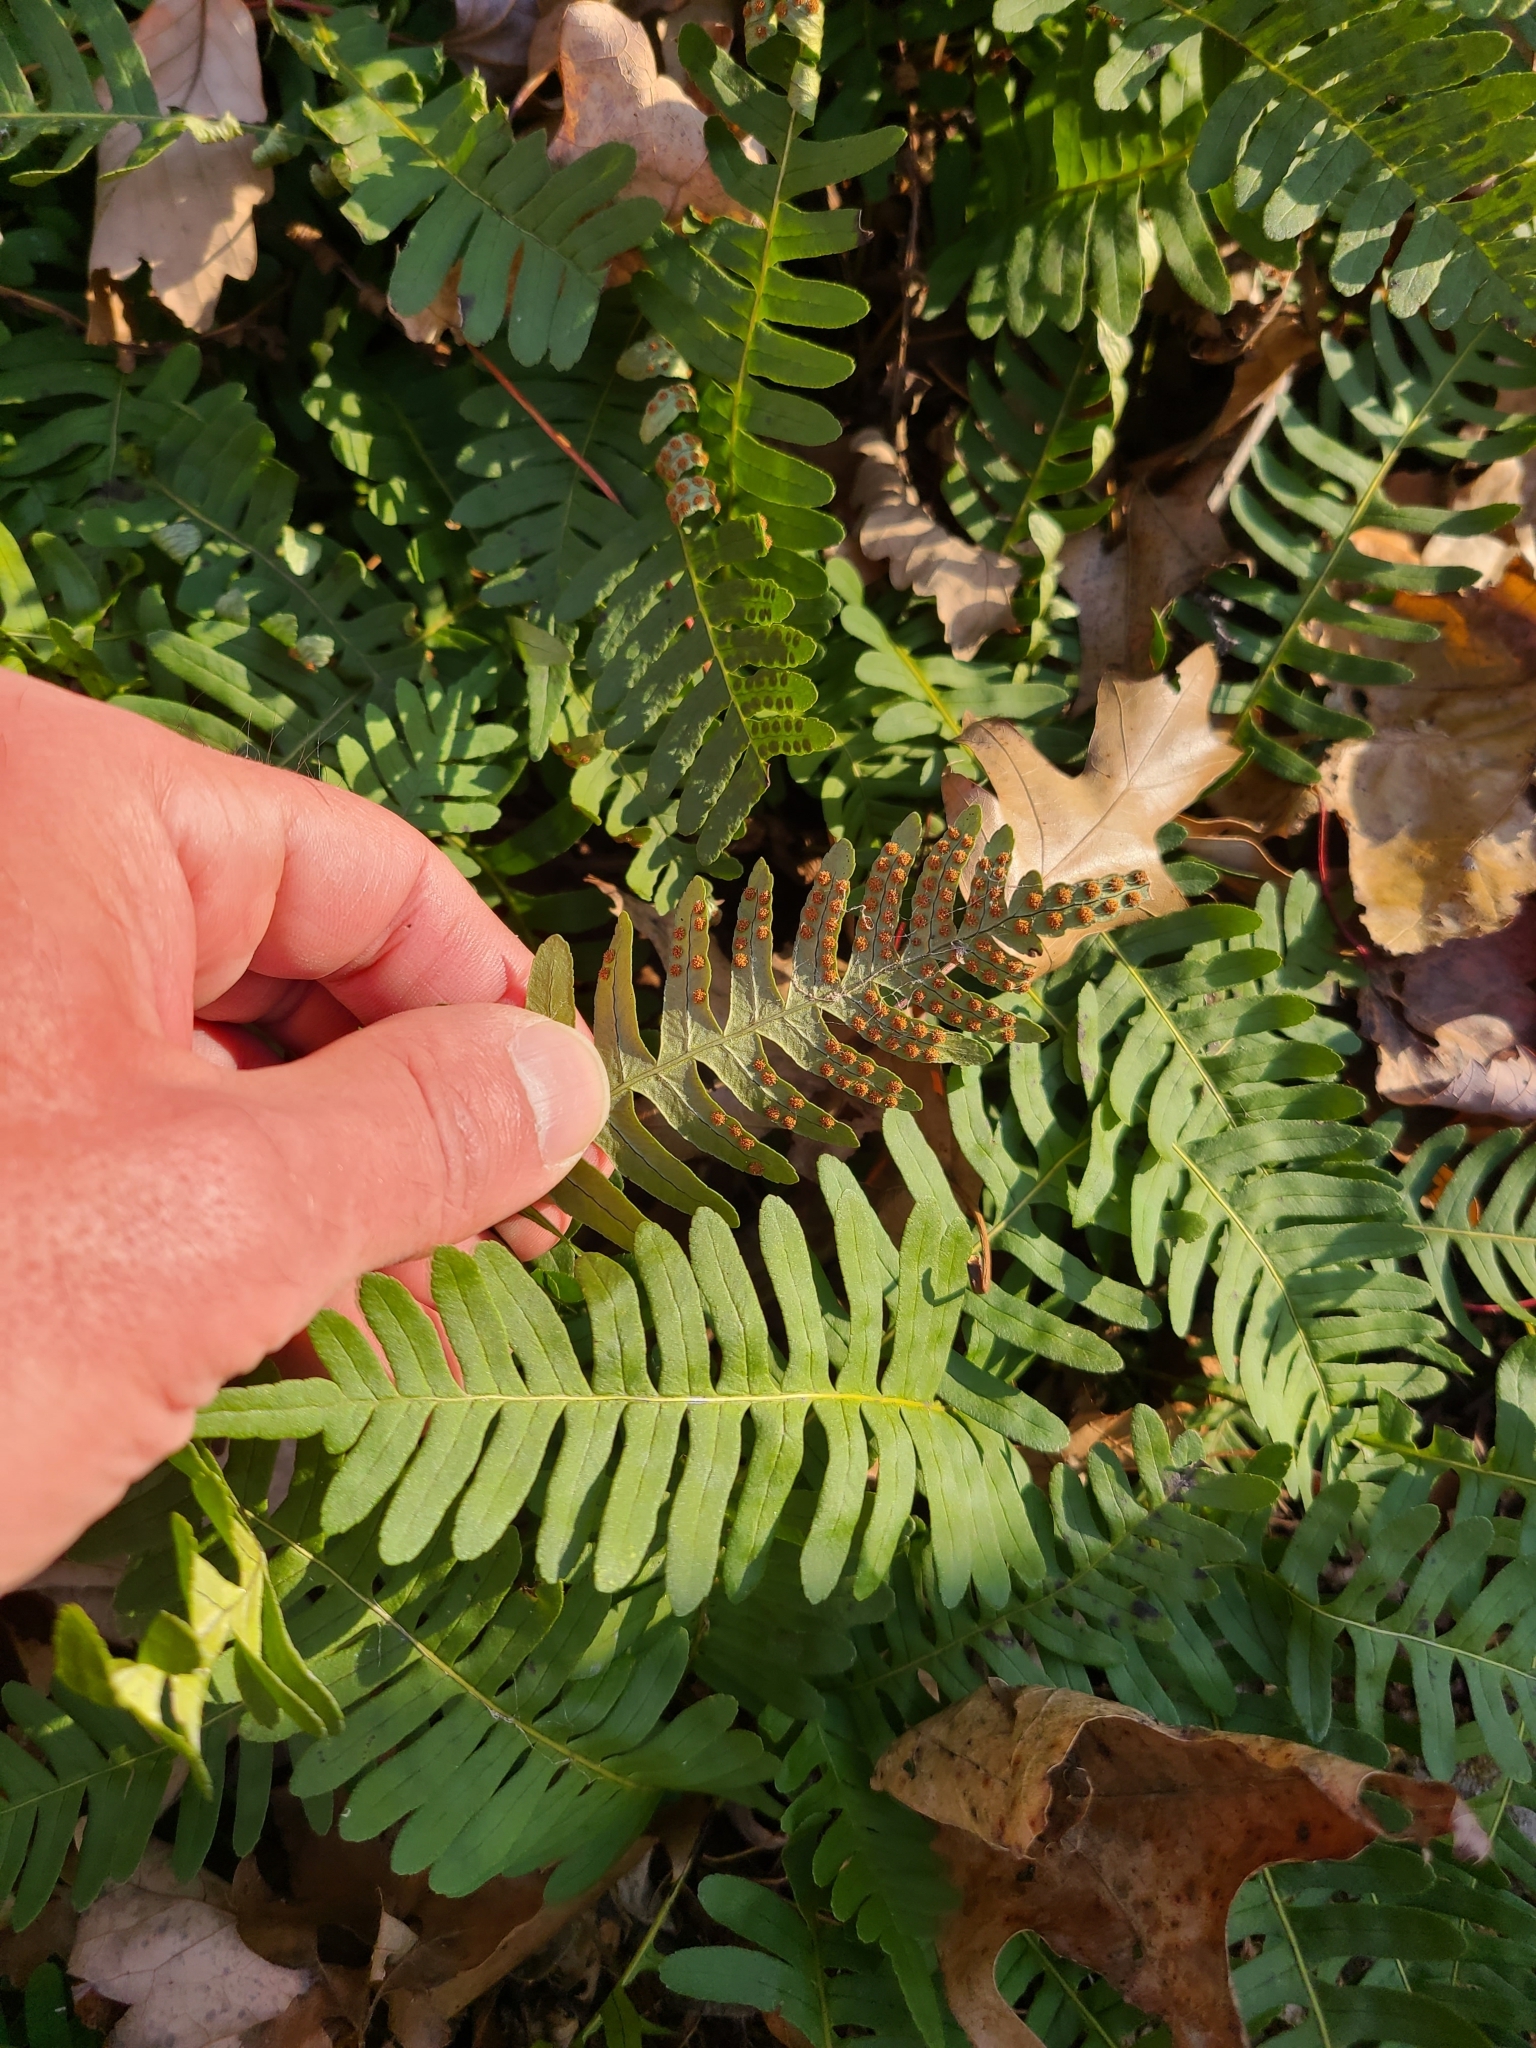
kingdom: Plantae
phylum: Tracheophyta
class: Polypodiopsida
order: Polypodiales
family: Polypodiaceae
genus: Polypodium
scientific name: Polypodium virginianum
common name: American wall fern
